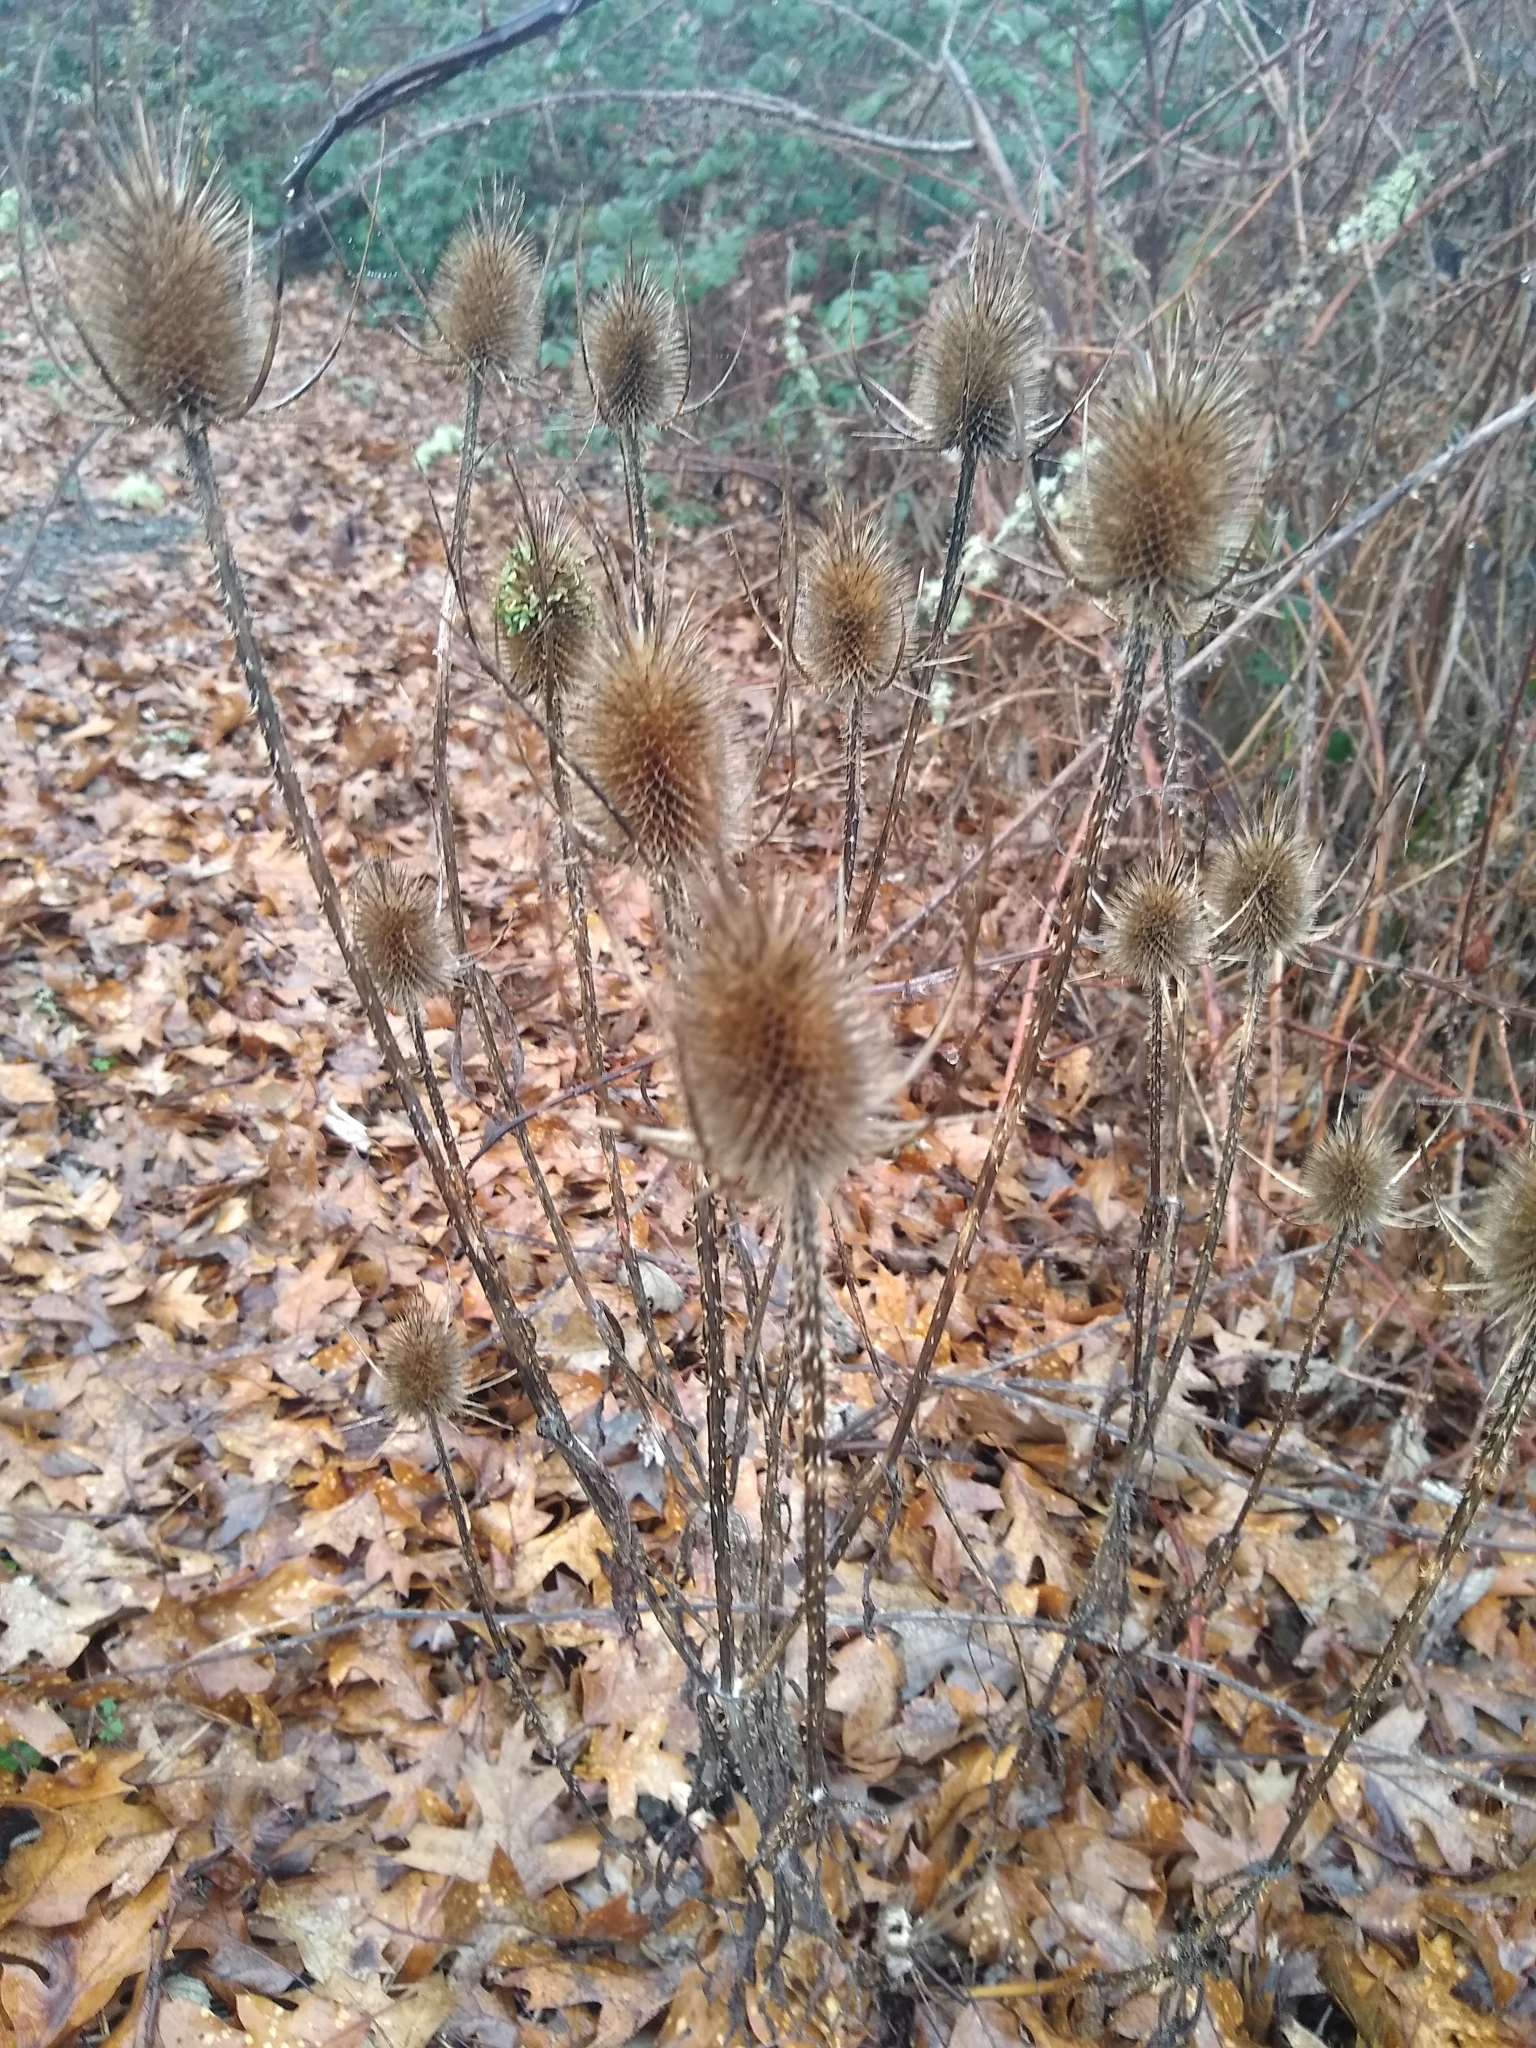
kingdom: Plantae
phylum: Tracheophyta
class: Magnoliopsida
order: Dipsacales
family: Caprifoliaceae
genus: Dipsacus
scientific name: Dipsacus fullonum
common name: Teasel
